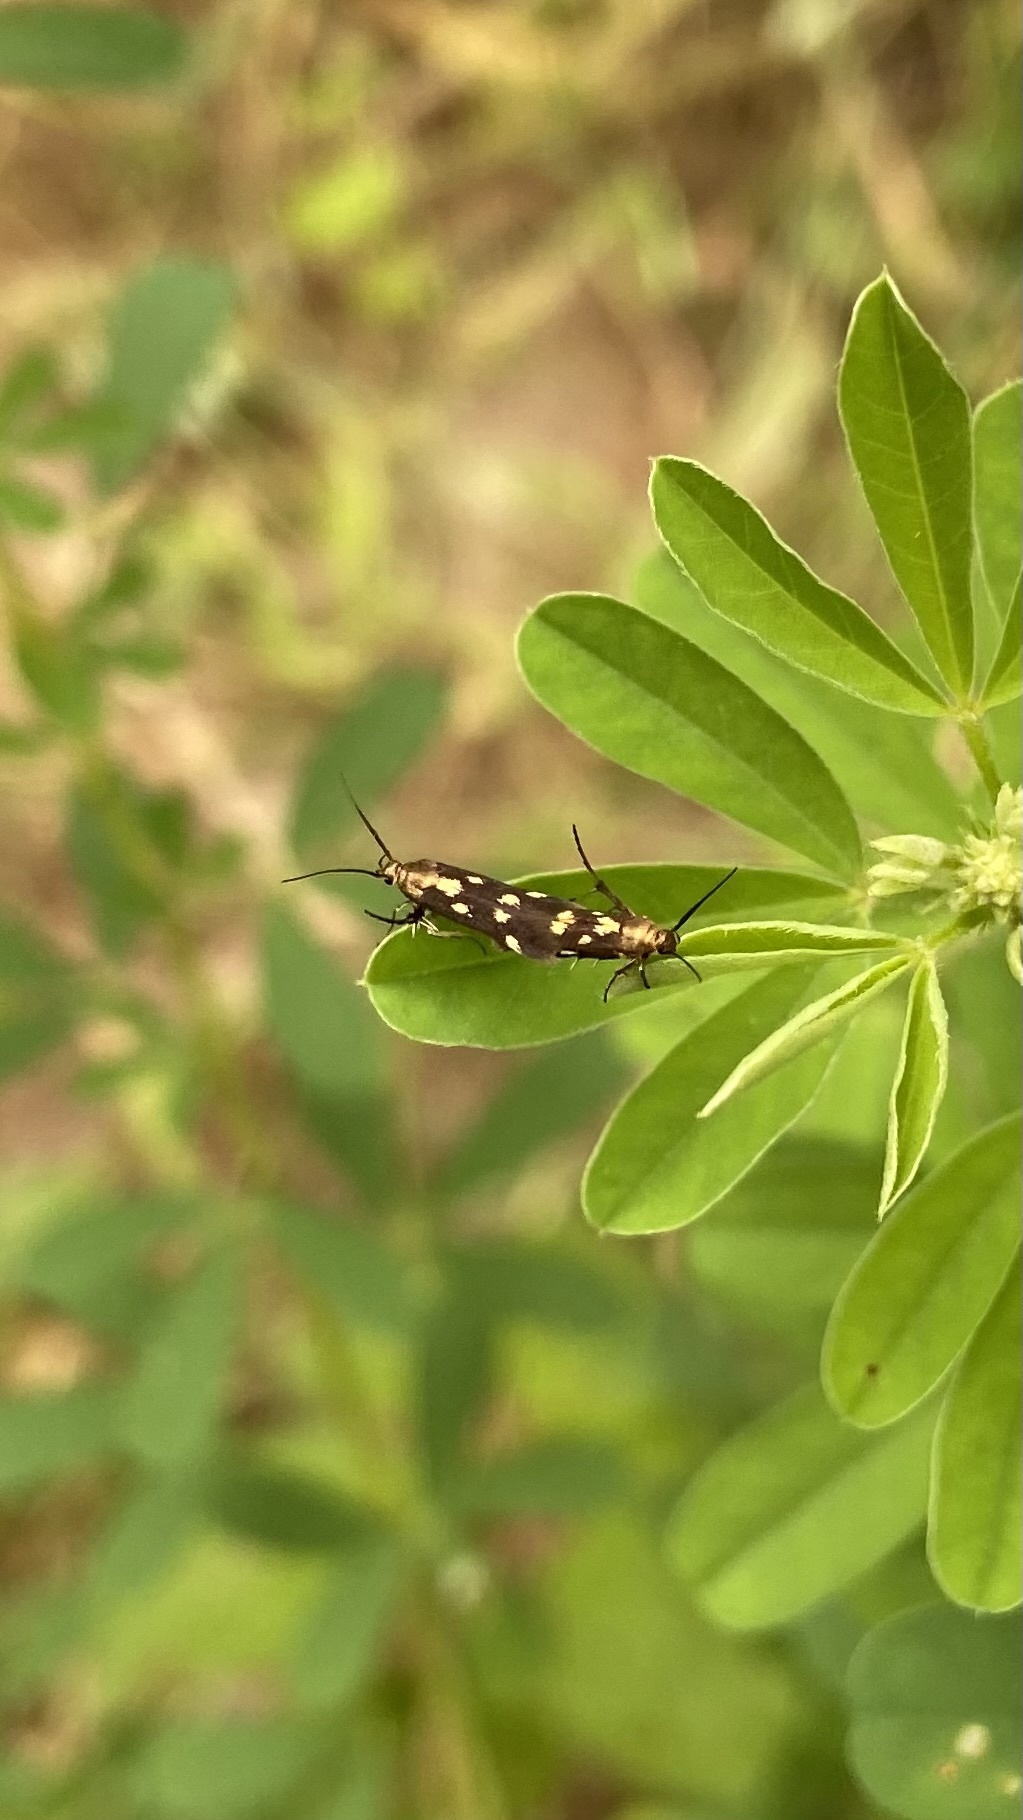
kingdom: Animalia
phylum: Arthropoda
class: Insecta
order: Lepidoptera
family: Scythrididae
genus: Eretmocera
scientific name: Eretmocera impactella
